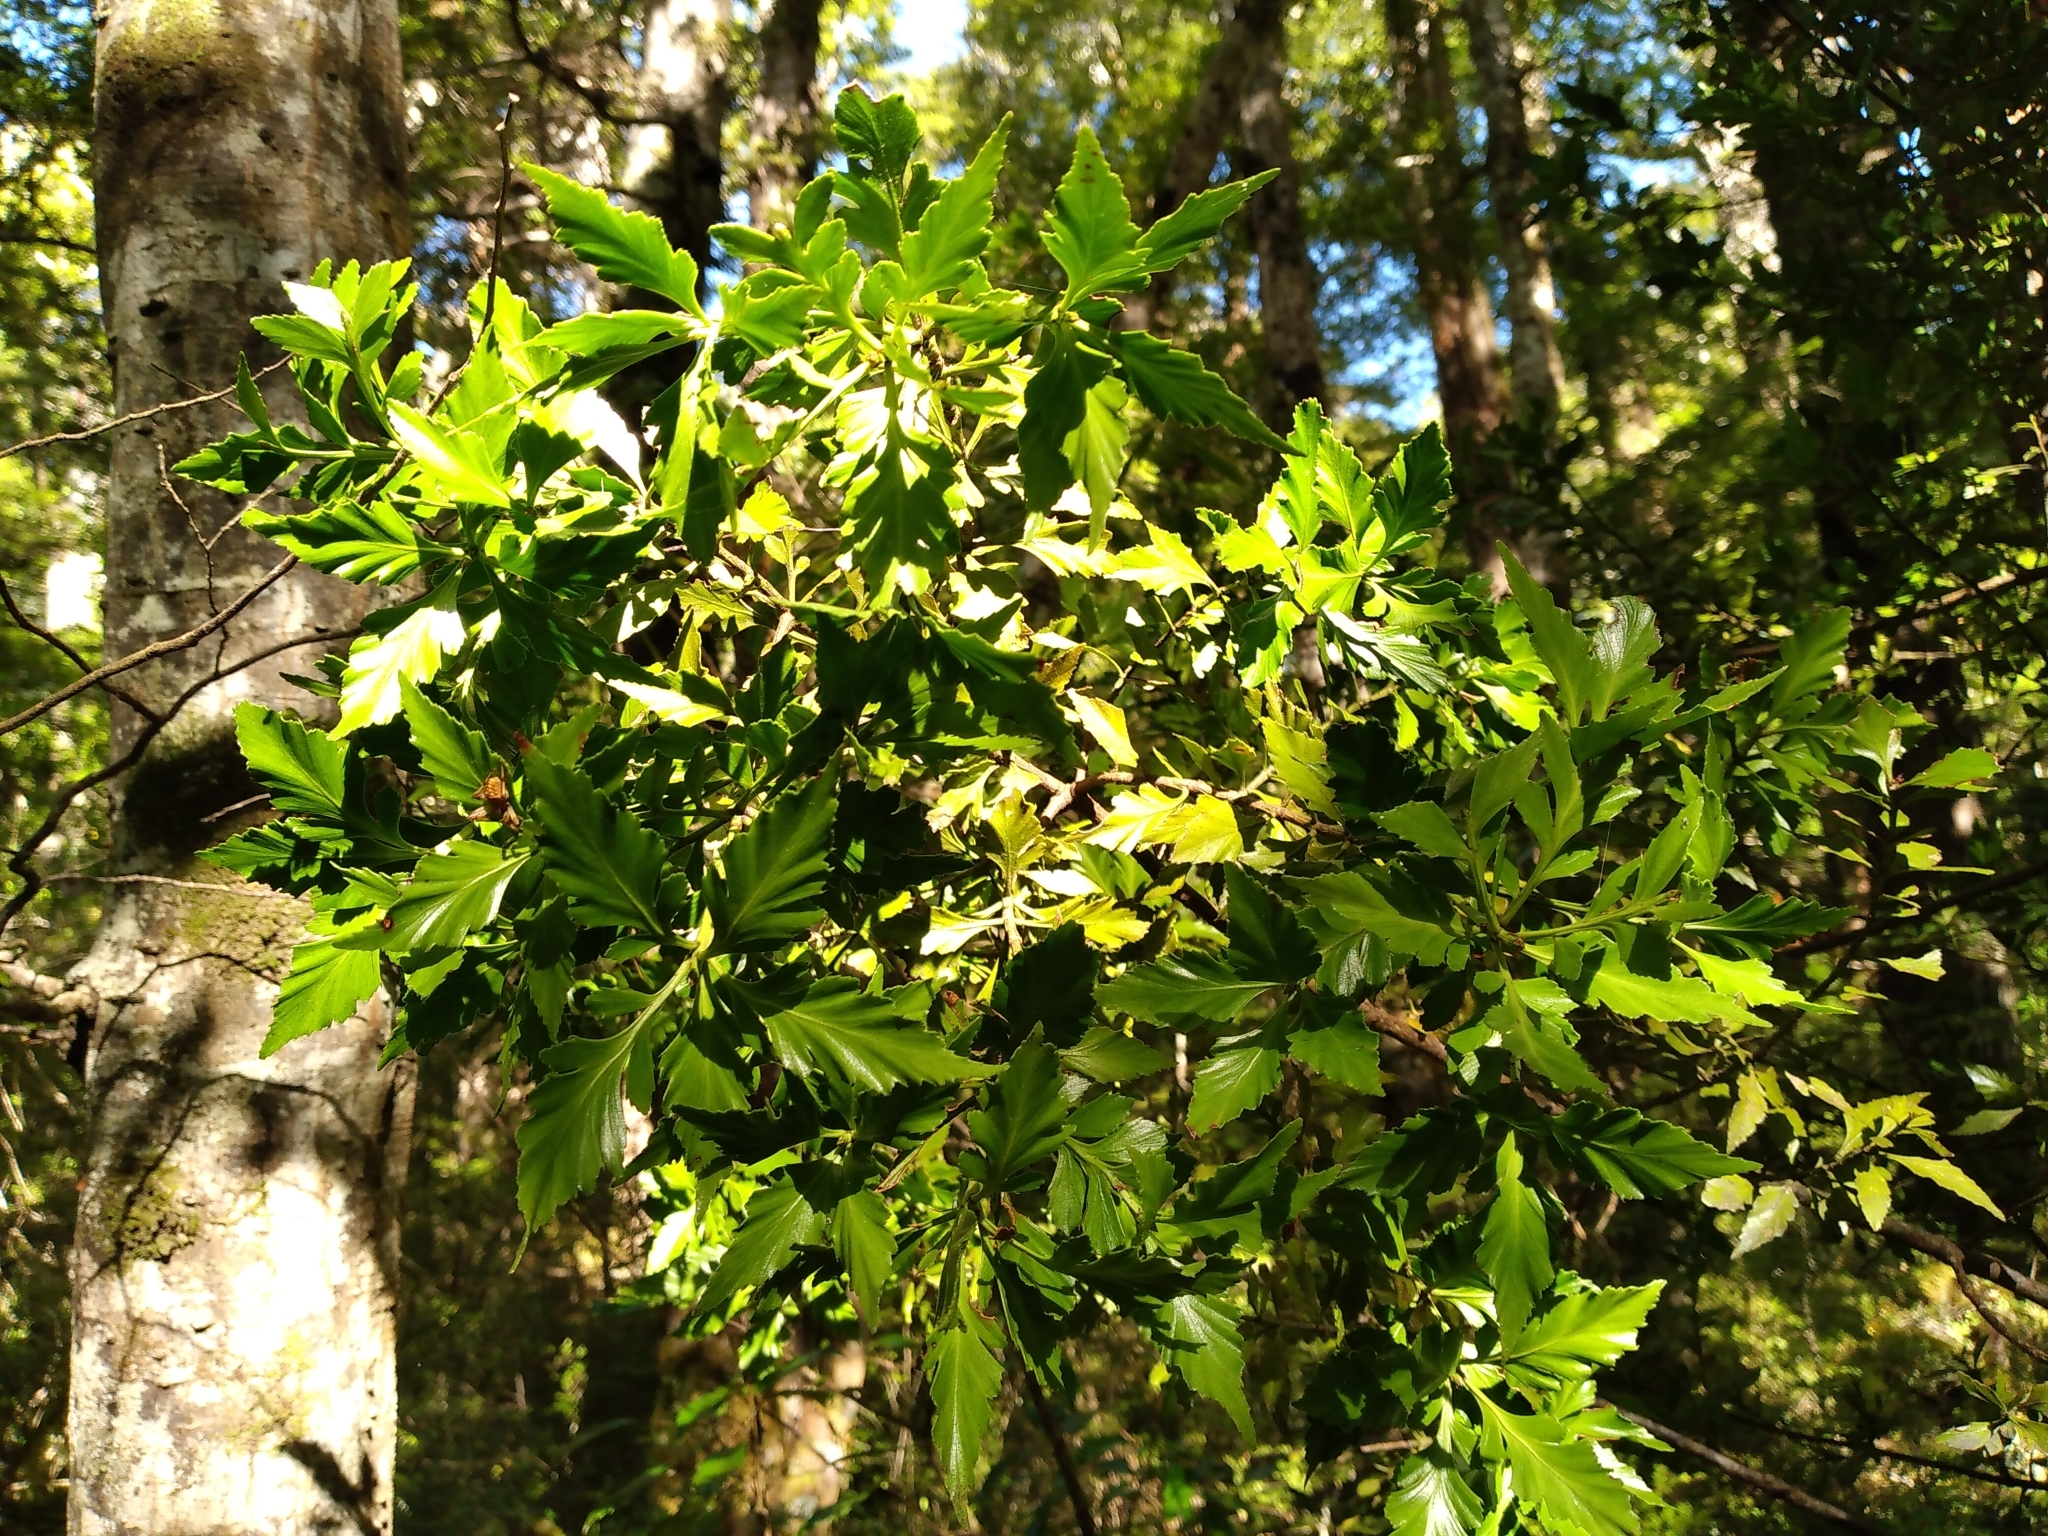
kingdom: Plantae
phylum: Tracheophyta
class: Pinopsida
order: Pinales
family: Phyllocladaceae
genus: Phyllocladus
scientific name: Phyllocladus trichomanoides
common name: Celery pine
